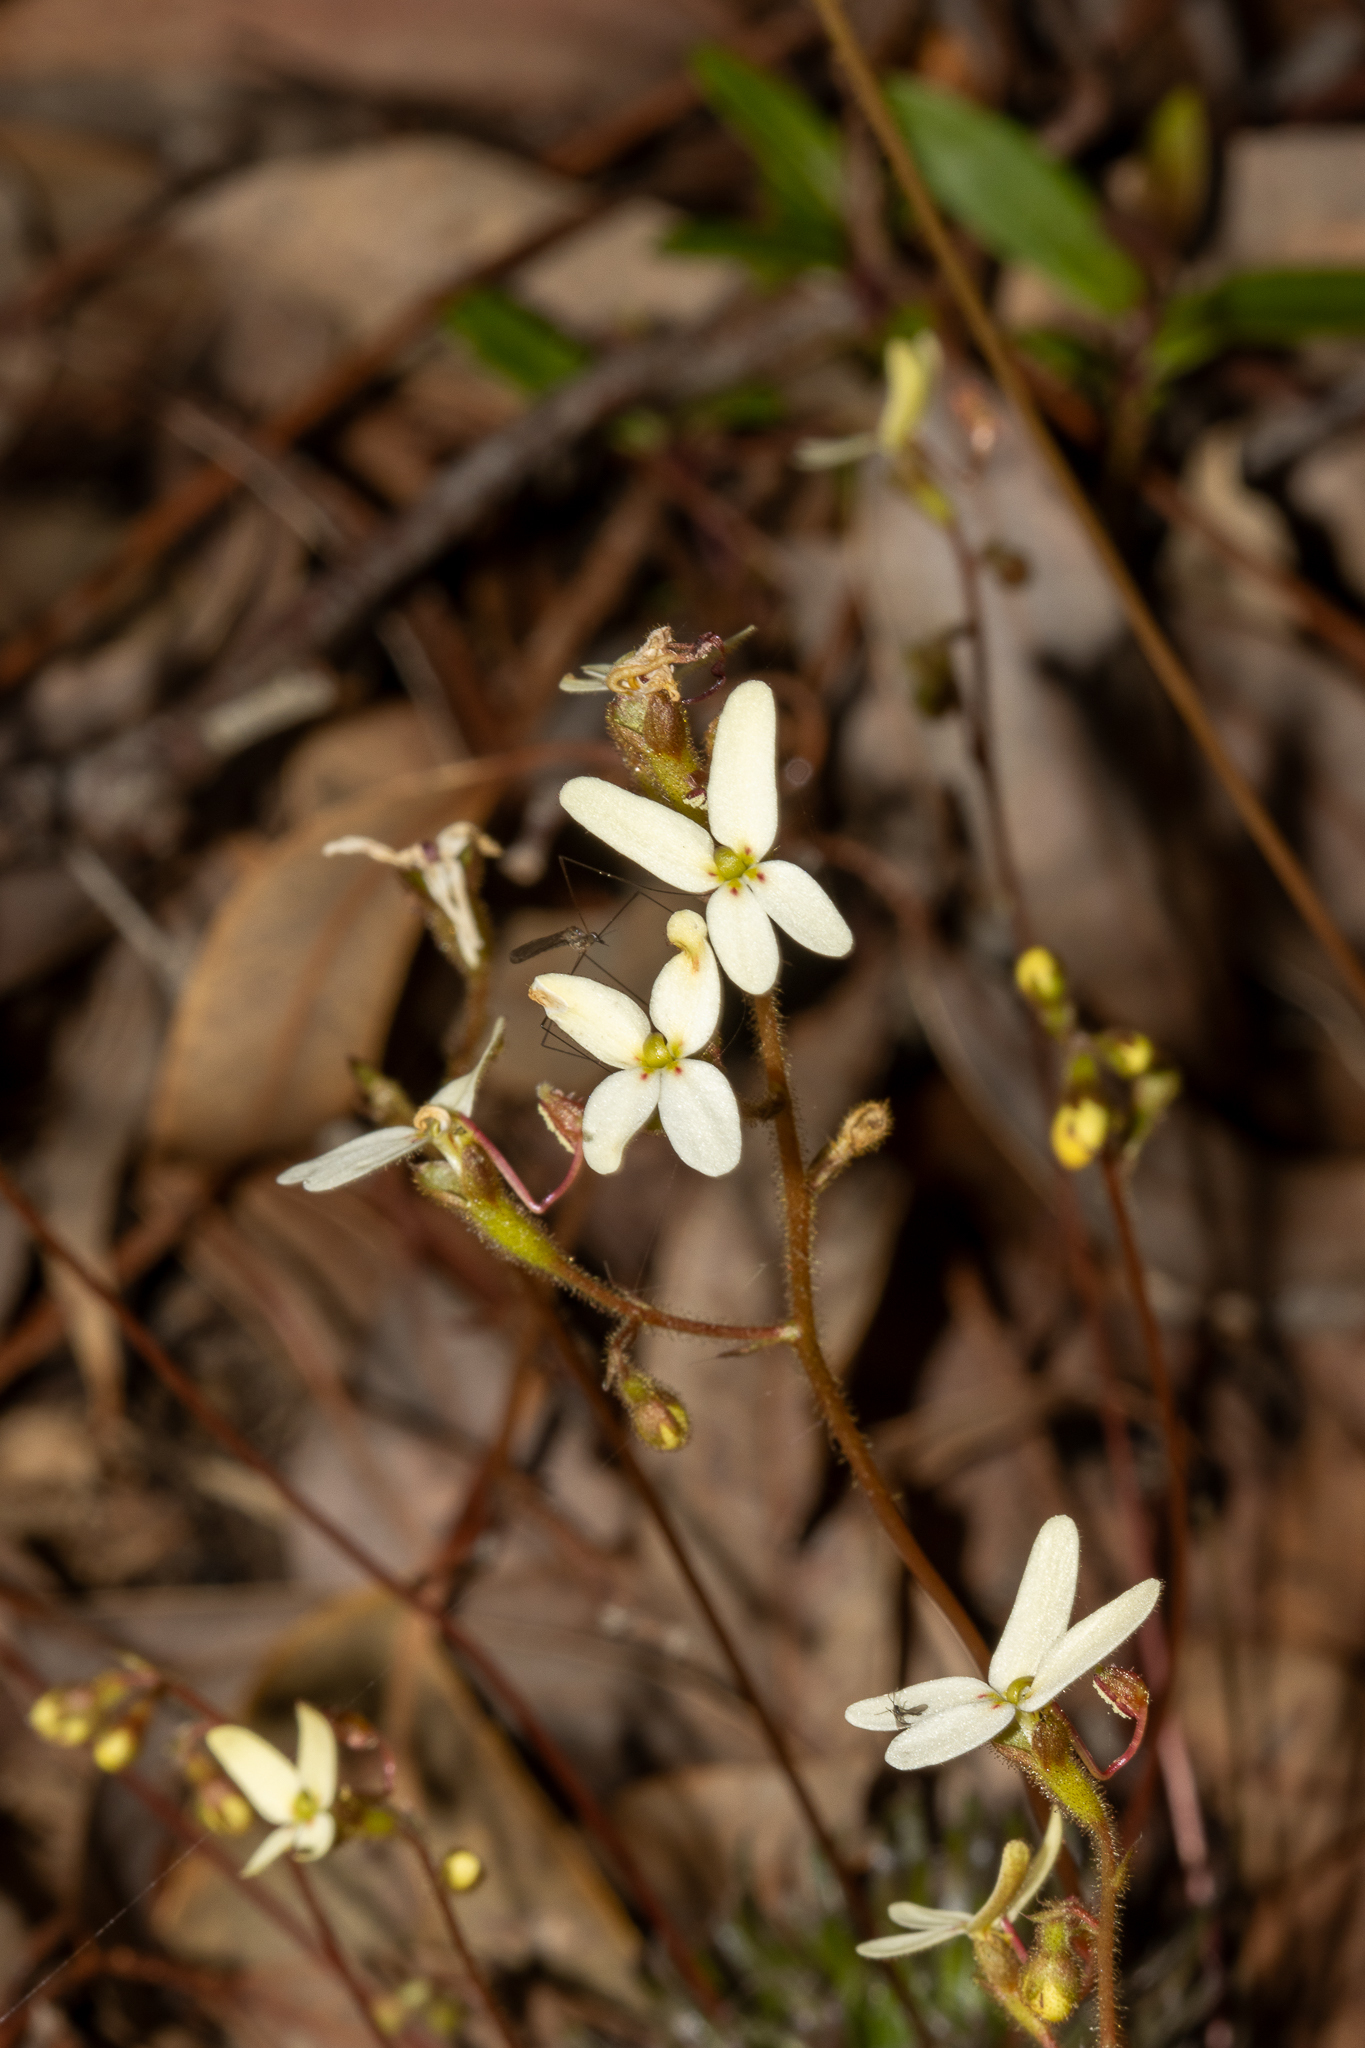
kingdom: Plantae
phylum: Tracheophyta
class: Magnoliopsida
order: Asterales
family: Stylidiaceae
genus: Stylidium
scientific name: Stylidium hispidum
